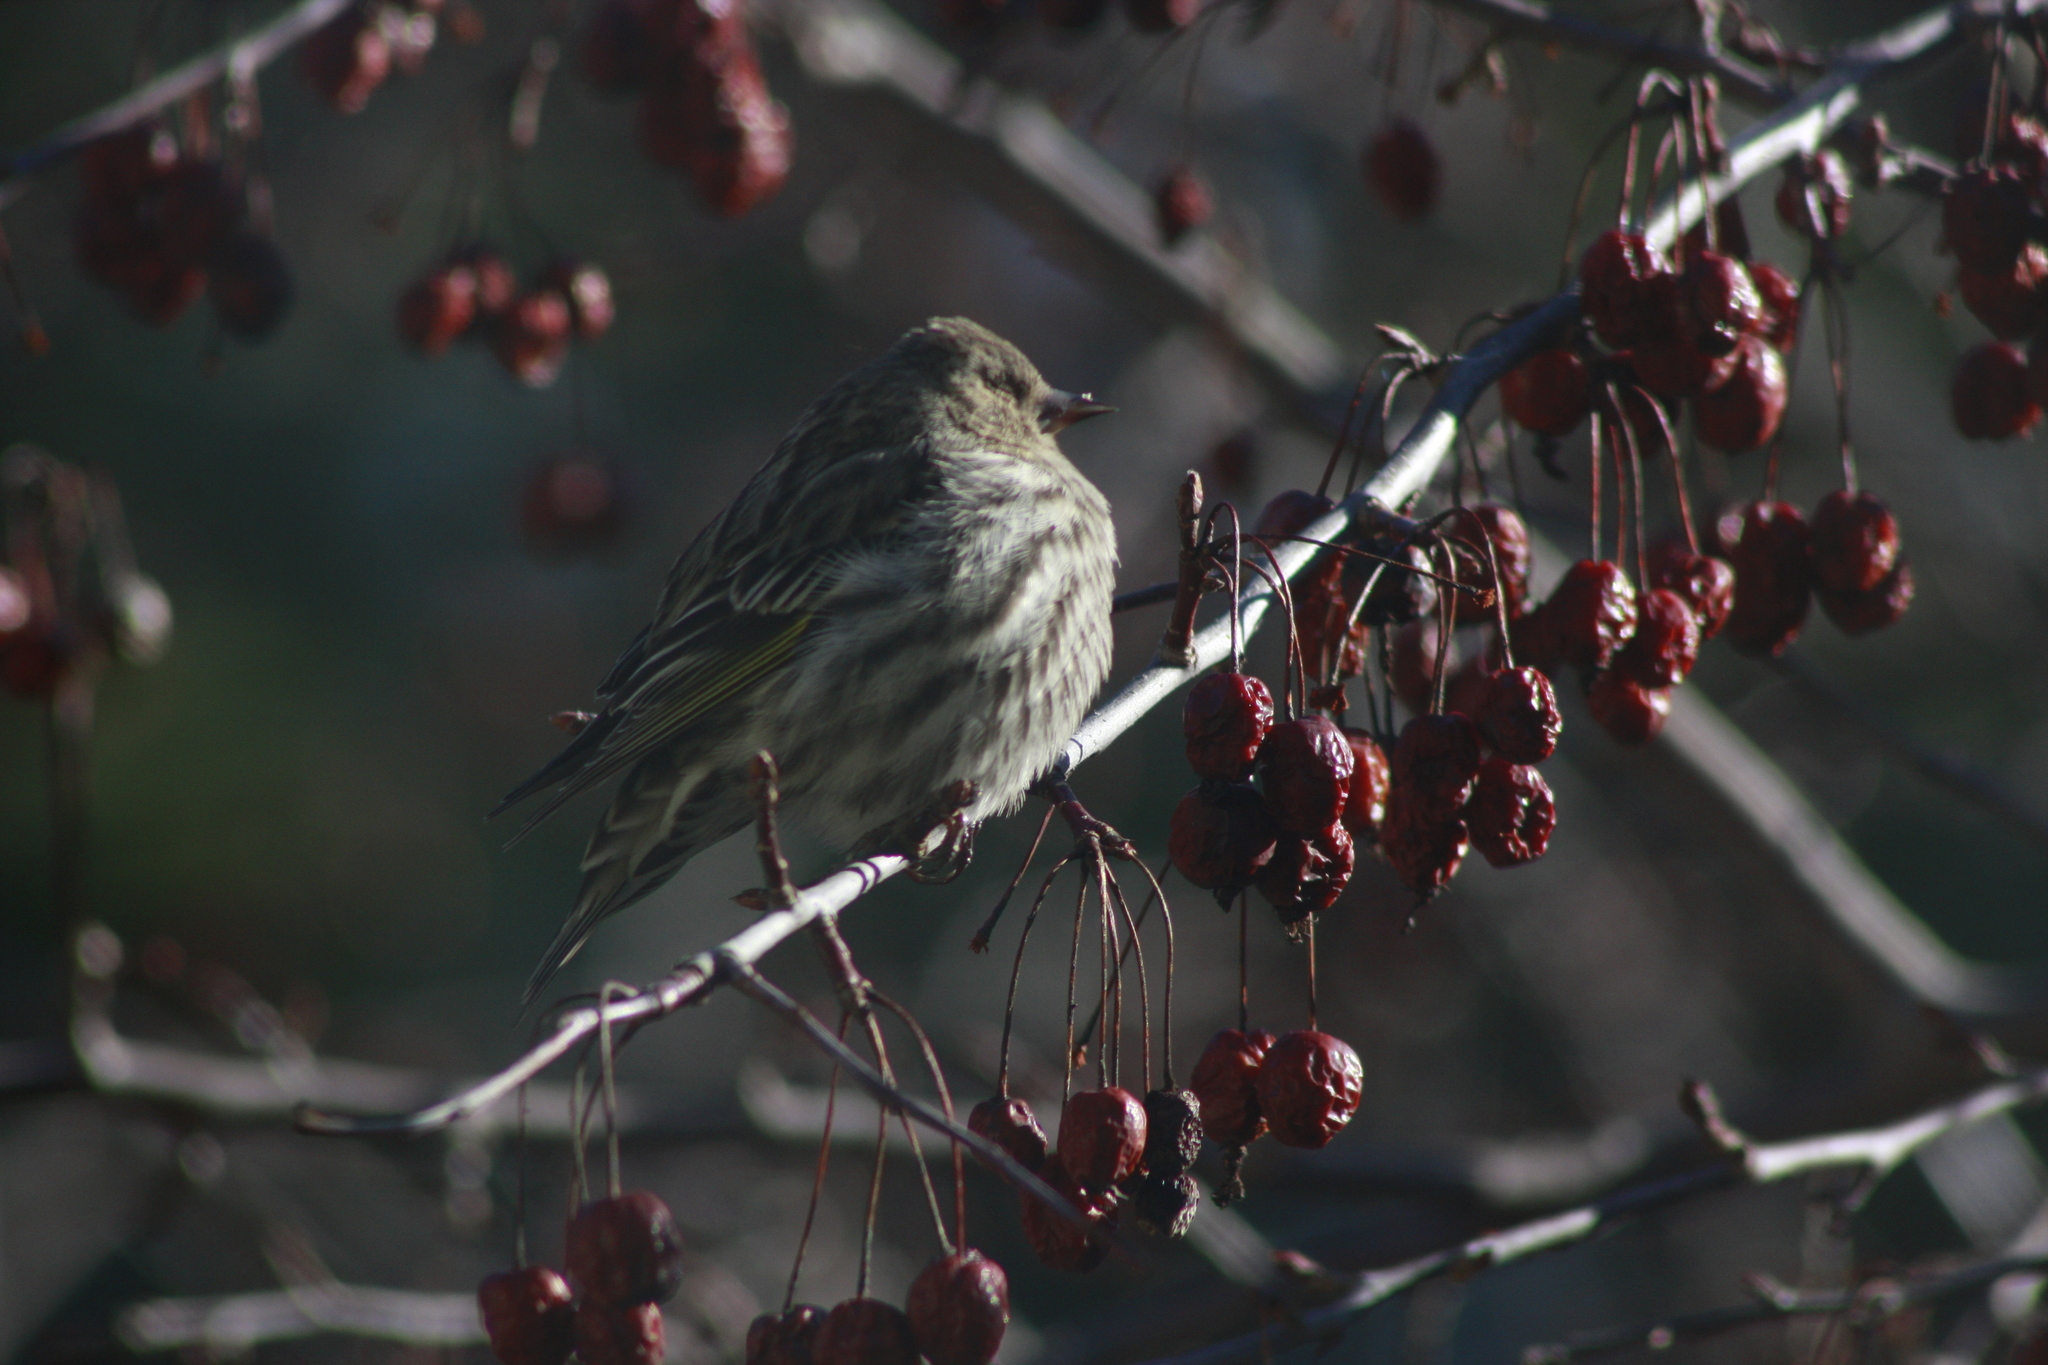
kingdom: Animalia
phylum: Chordata
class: Aves
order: Passeriformes
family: Fringillidae
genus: Spinus
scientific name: Spinus pinus
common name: Pine siskin
